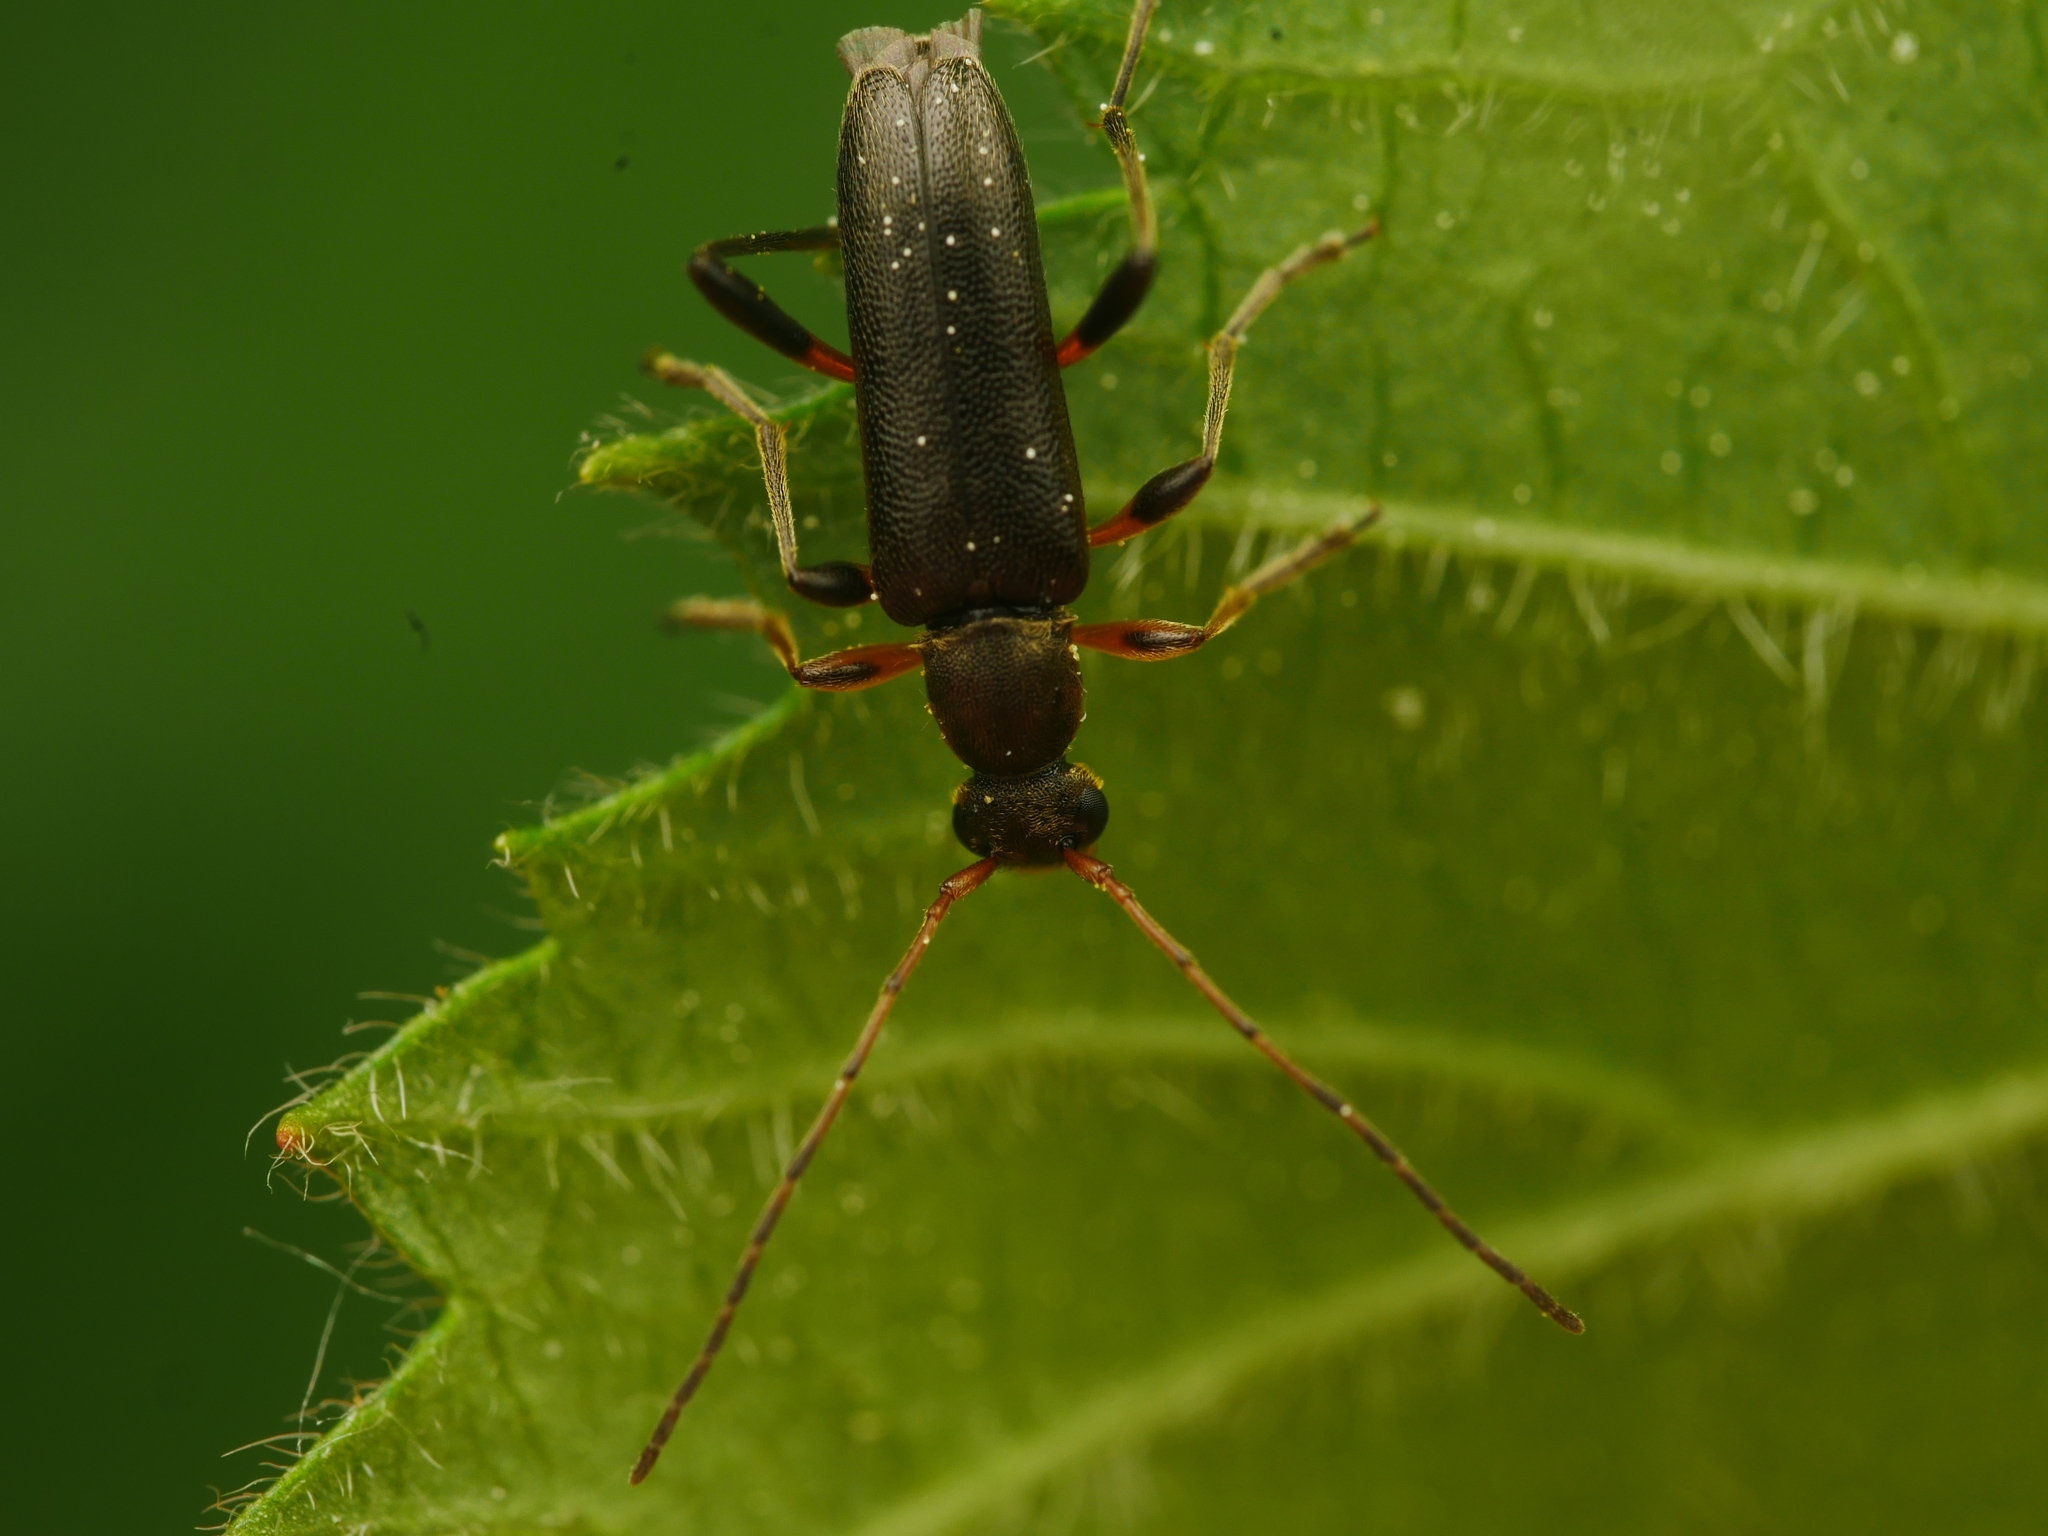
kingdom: Animalia
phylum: Arthropoda
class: Insecta
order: Coleoptera
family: Cerambycidae
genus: Grammoptera
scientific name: Grammoptera ruficornis
